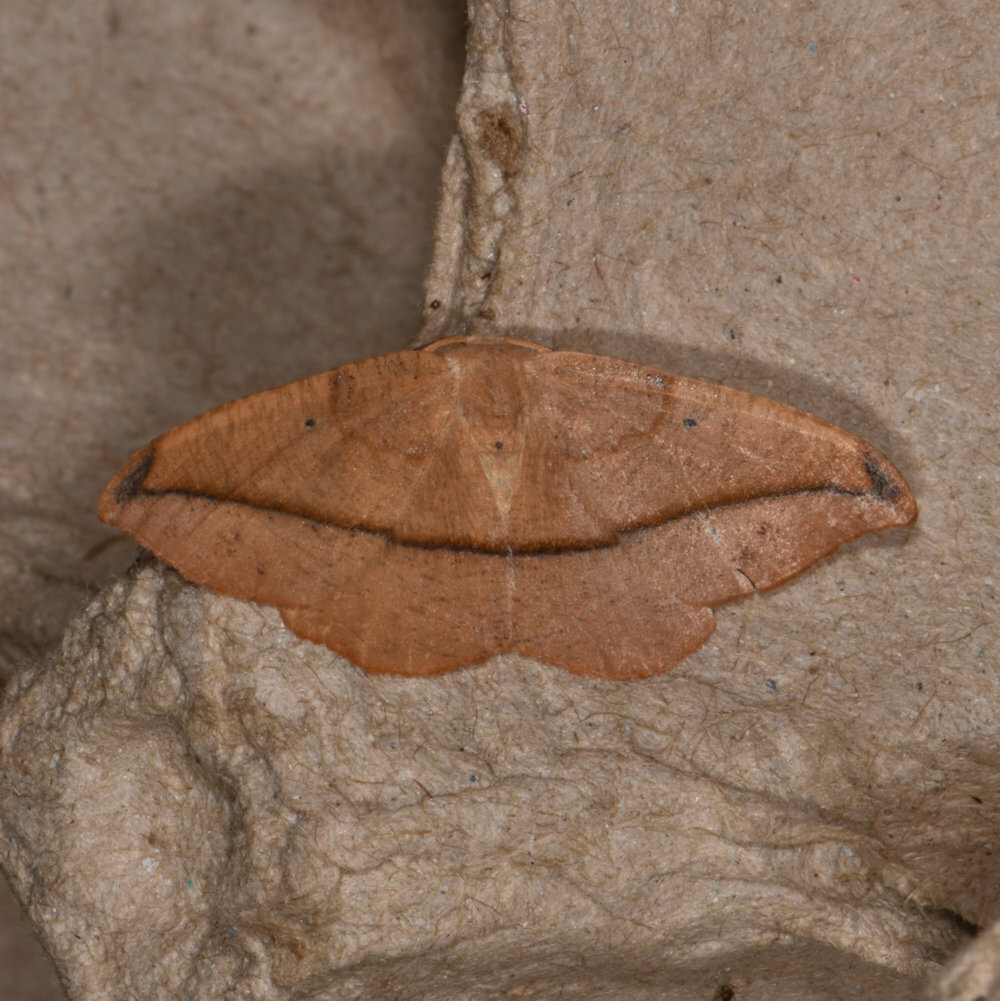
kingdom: Animalia
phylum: Arthropoda
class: Insecta
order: Lepidoptera
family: Geometridae
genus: Patalene
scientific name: Patalene olyzonaria
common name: Juniper geometer moth
